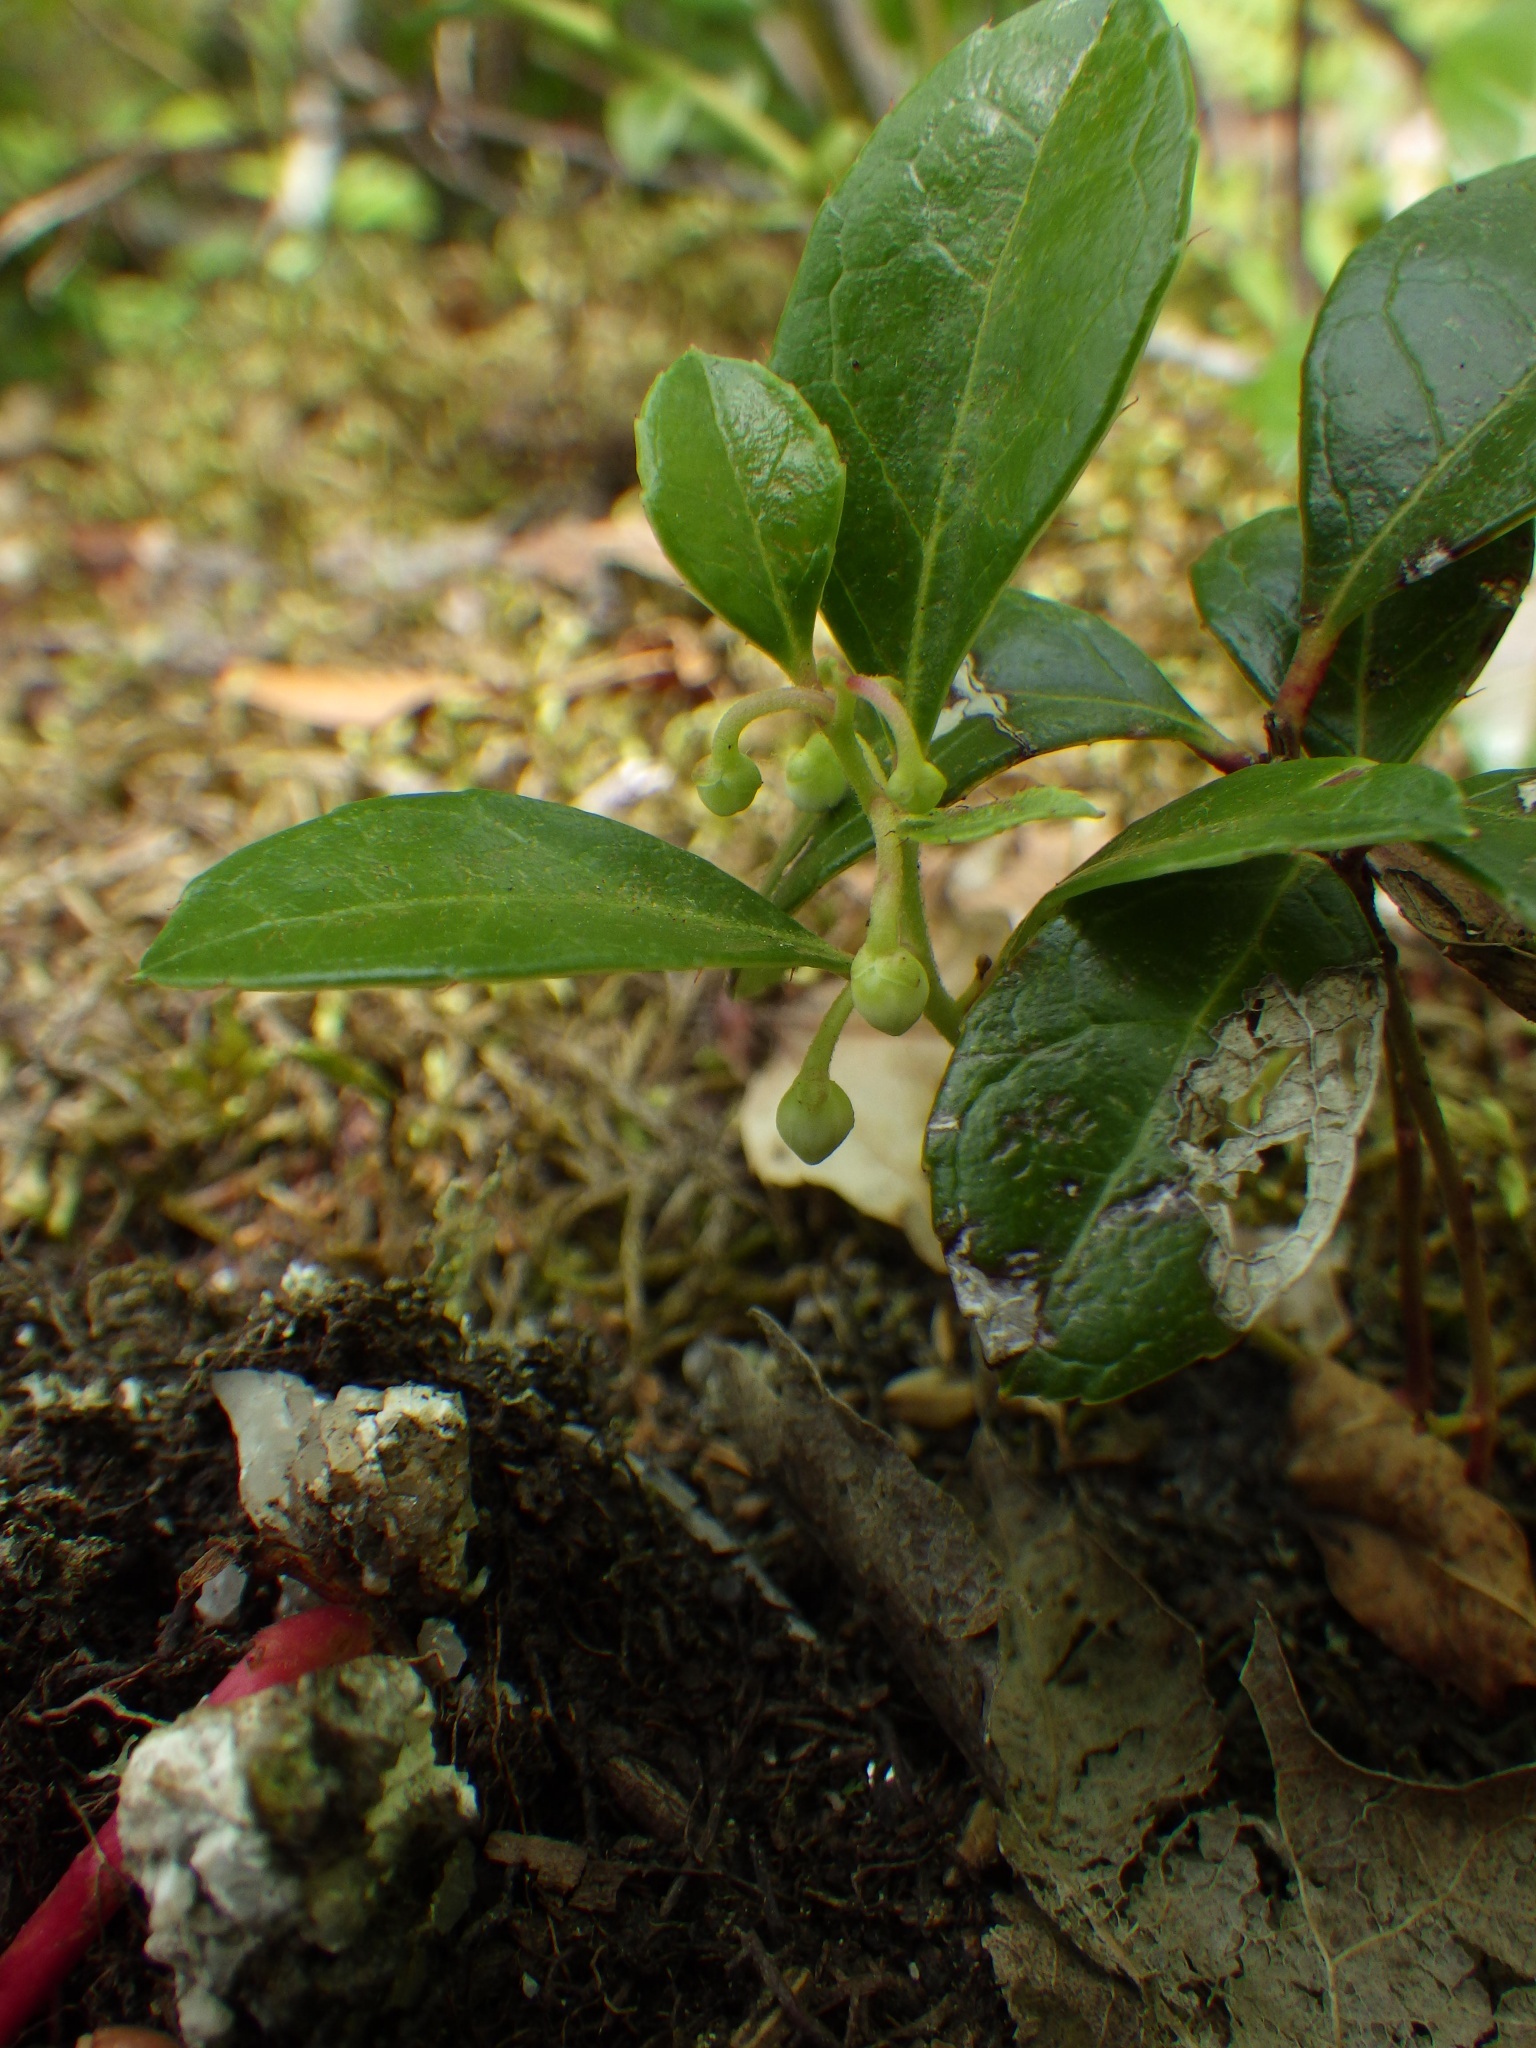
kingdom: Plantae
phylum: Tracheophyta
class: Magnoliopsida
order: Ericales
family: Ericaceae
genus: Gaultheria
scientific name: Gaultheria procumbens
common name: Checkerberry
